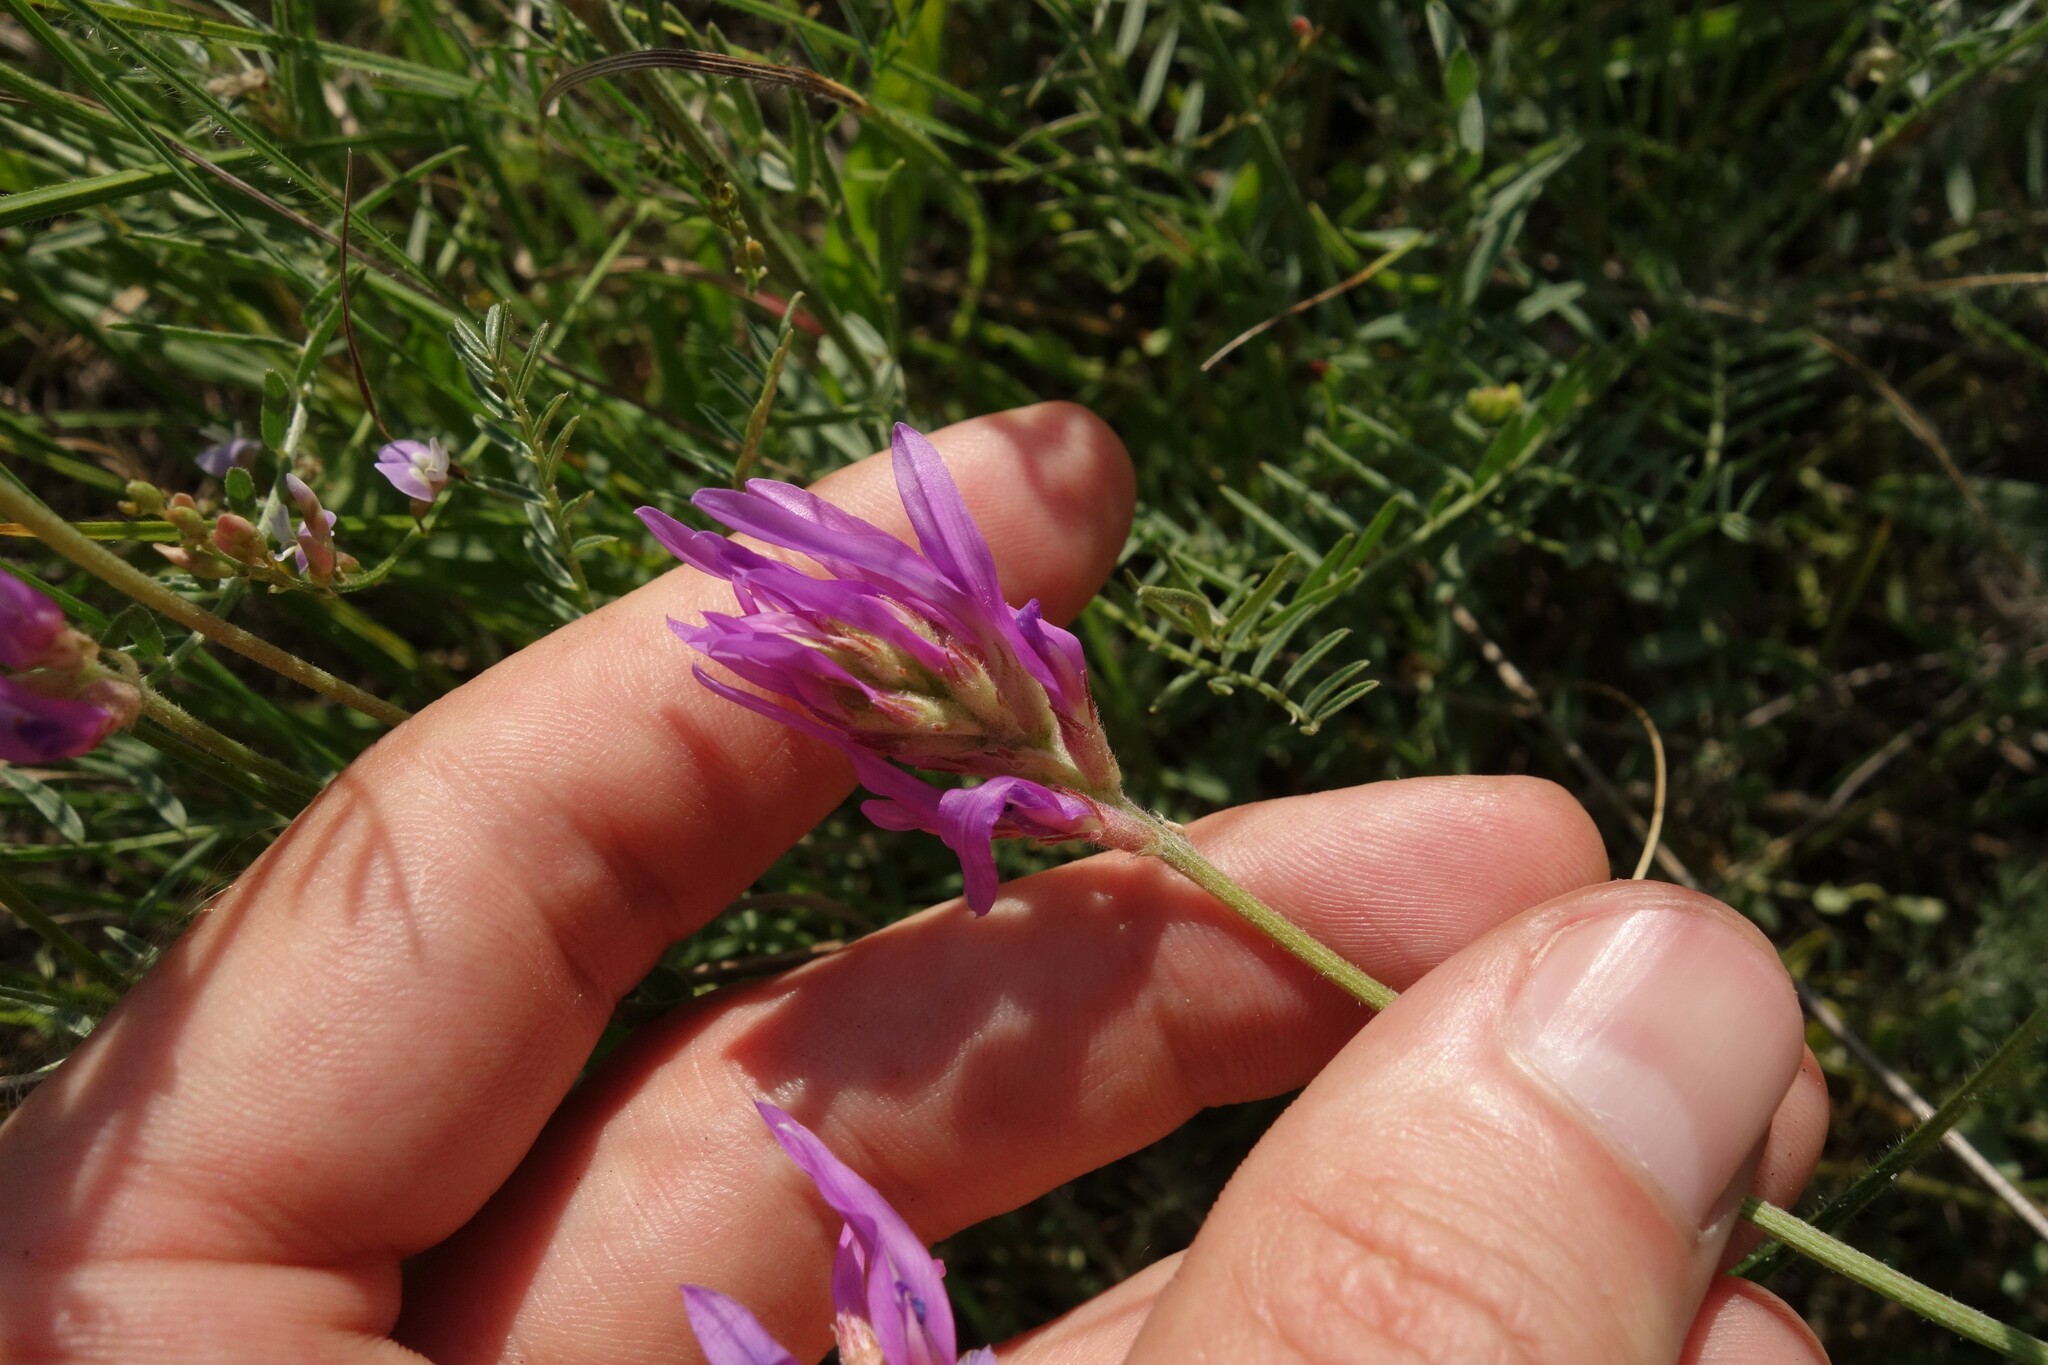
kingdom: Plantae
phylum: Tracheophyta
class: Magnoliopsida
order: Fabales
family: Fabaceae
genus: Astragalus
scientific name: Astragalus onobrychis
